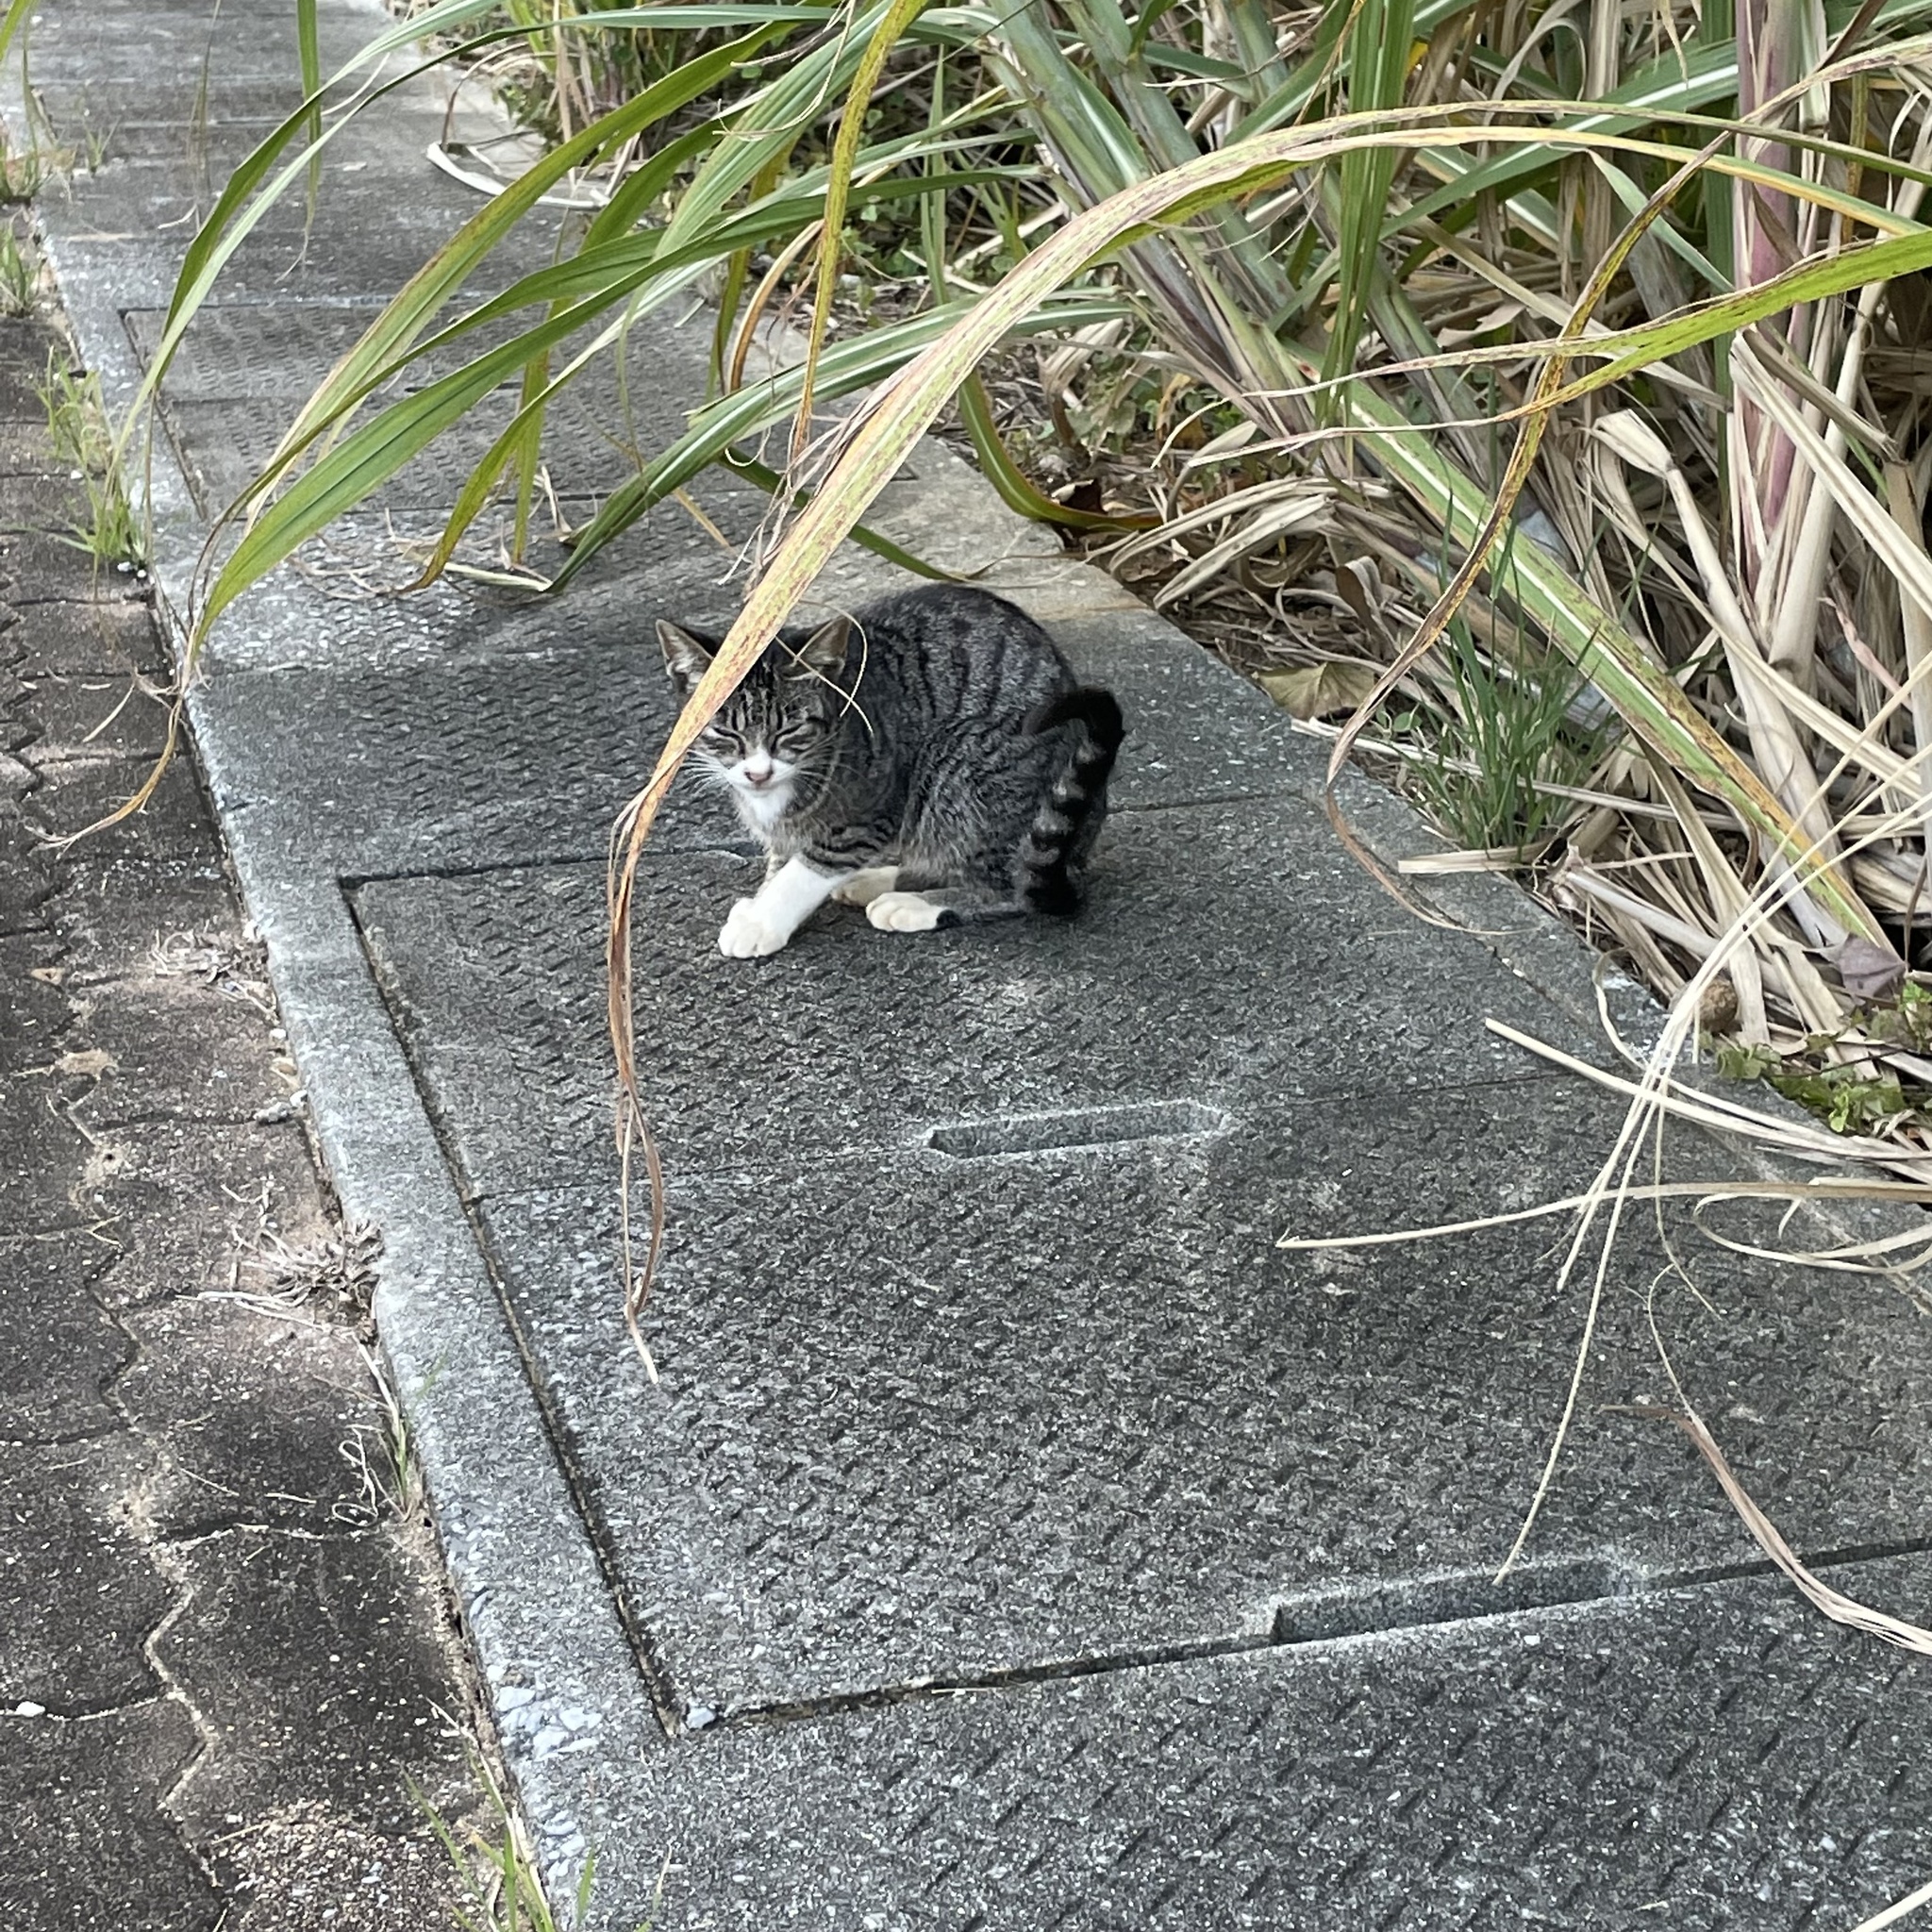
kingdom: Animalia
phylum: Chordata
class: Mammalia
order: Carnivora
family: Felidae
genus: Felis
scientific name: Felis catus
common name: Domestic cat
